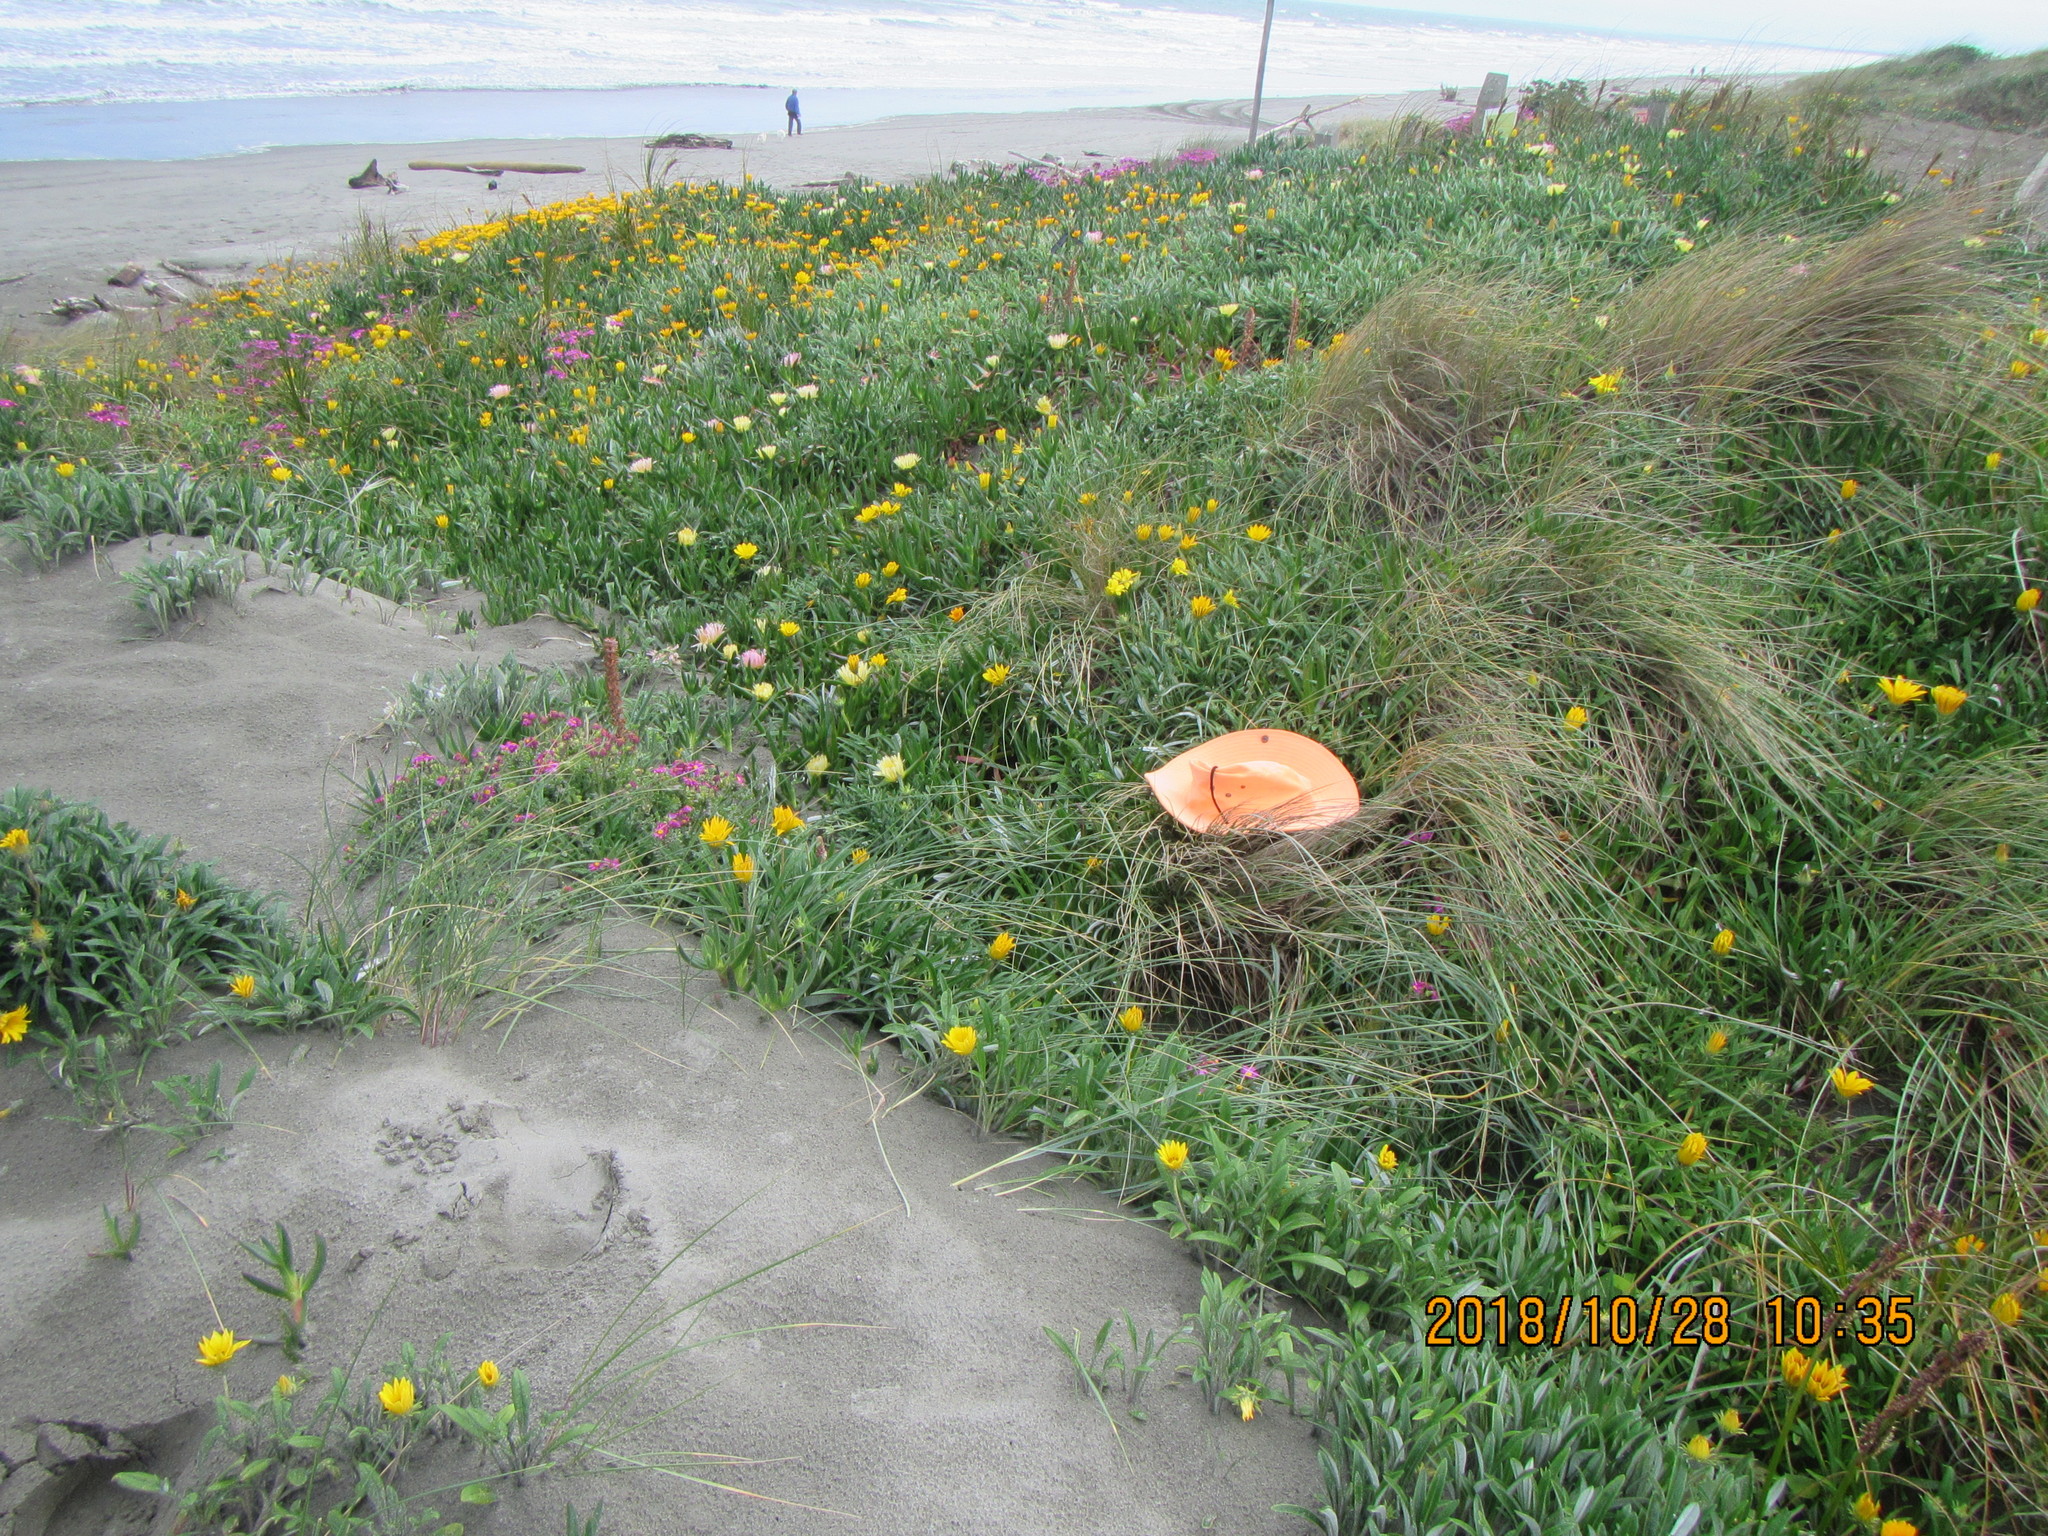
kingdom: Animalia
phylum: Arthropoda
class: Arachnida
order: Araneae
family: Thomisidae
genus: Sidymella
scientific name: Sidymella trapezia
